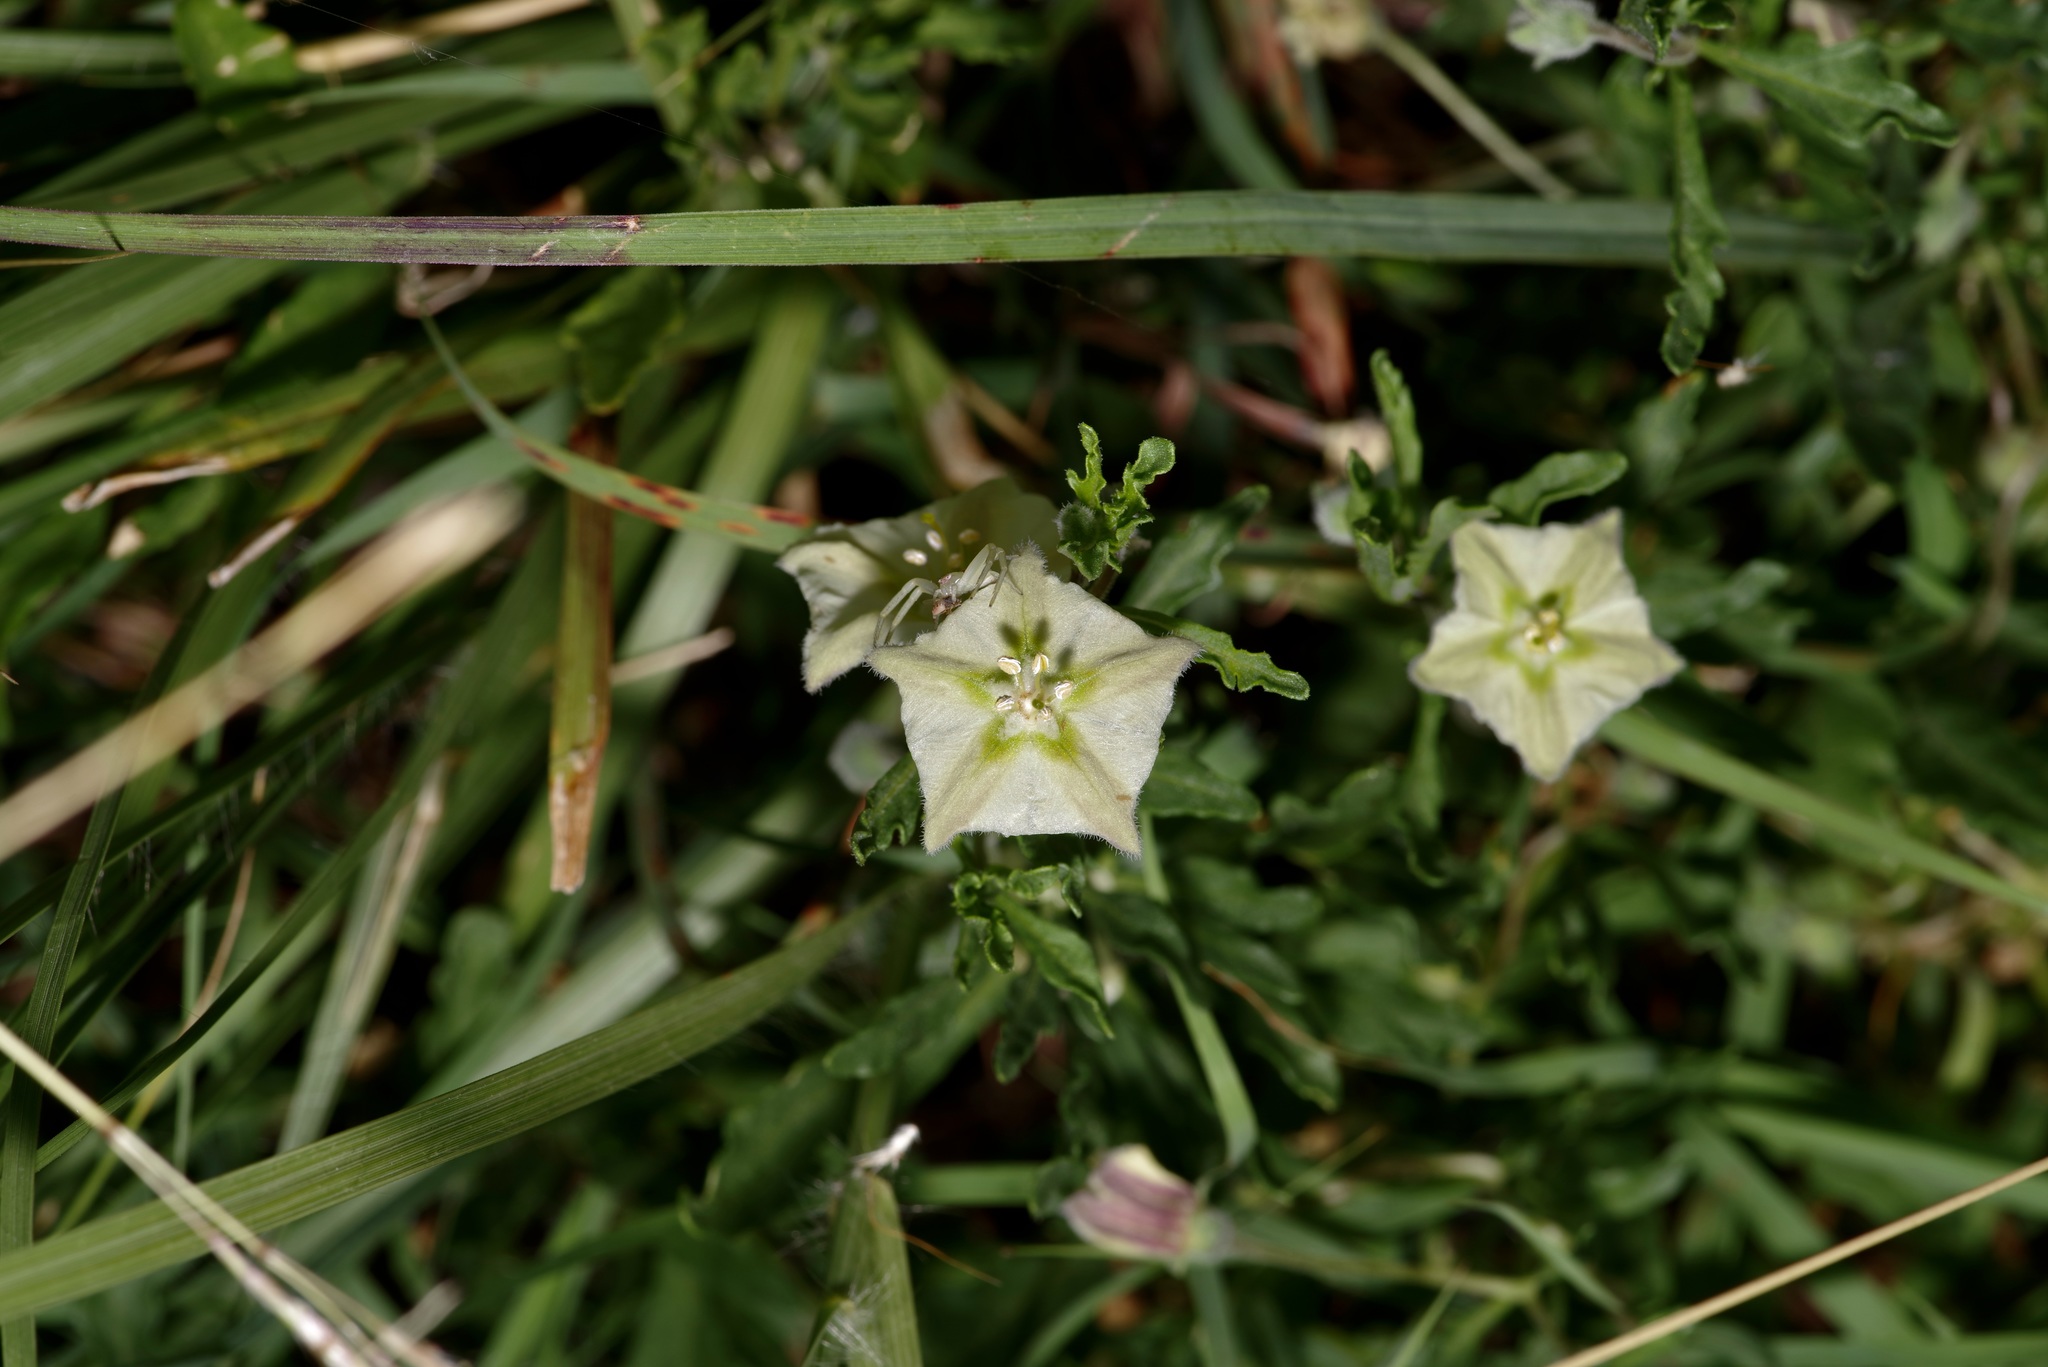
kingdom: Plantae
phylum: Tracheophyta
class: Magnoliopsida
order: Solanales
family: Solanaceae
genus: Chamaesaracha
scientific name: Chamaesaracha edwardsiana
